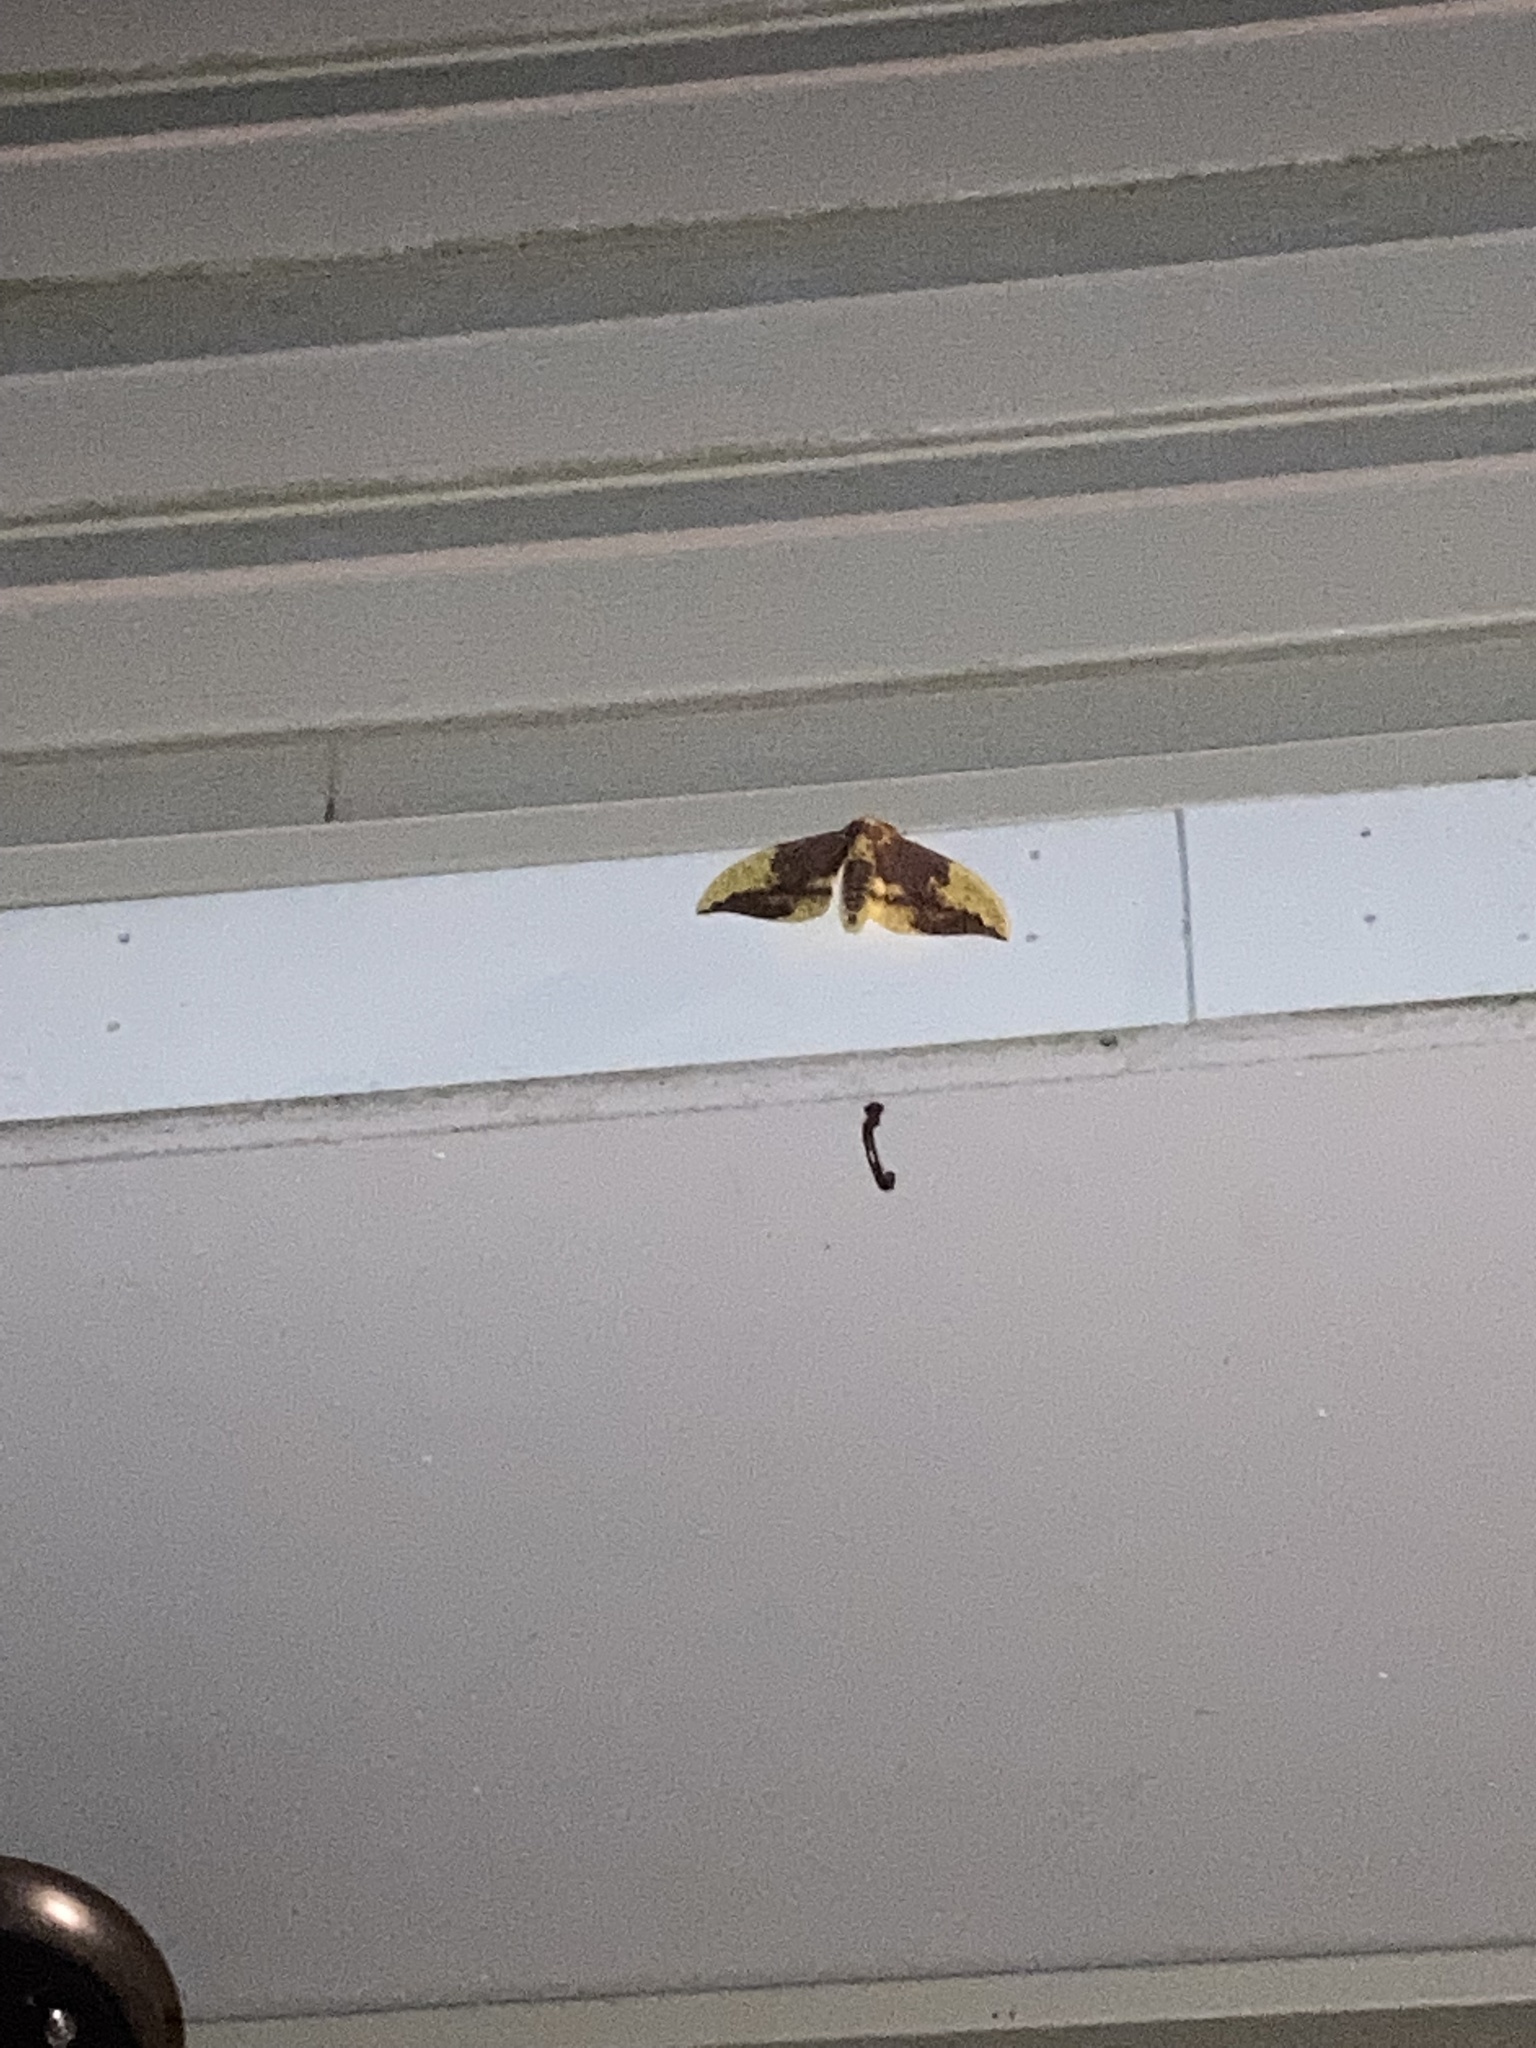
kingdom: Animalia
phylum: Arthropoda
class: Insecta
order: Lepidoptera
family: Saturniidae
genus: Eacles
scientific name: Eacles imperialis
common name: Imperial moth
